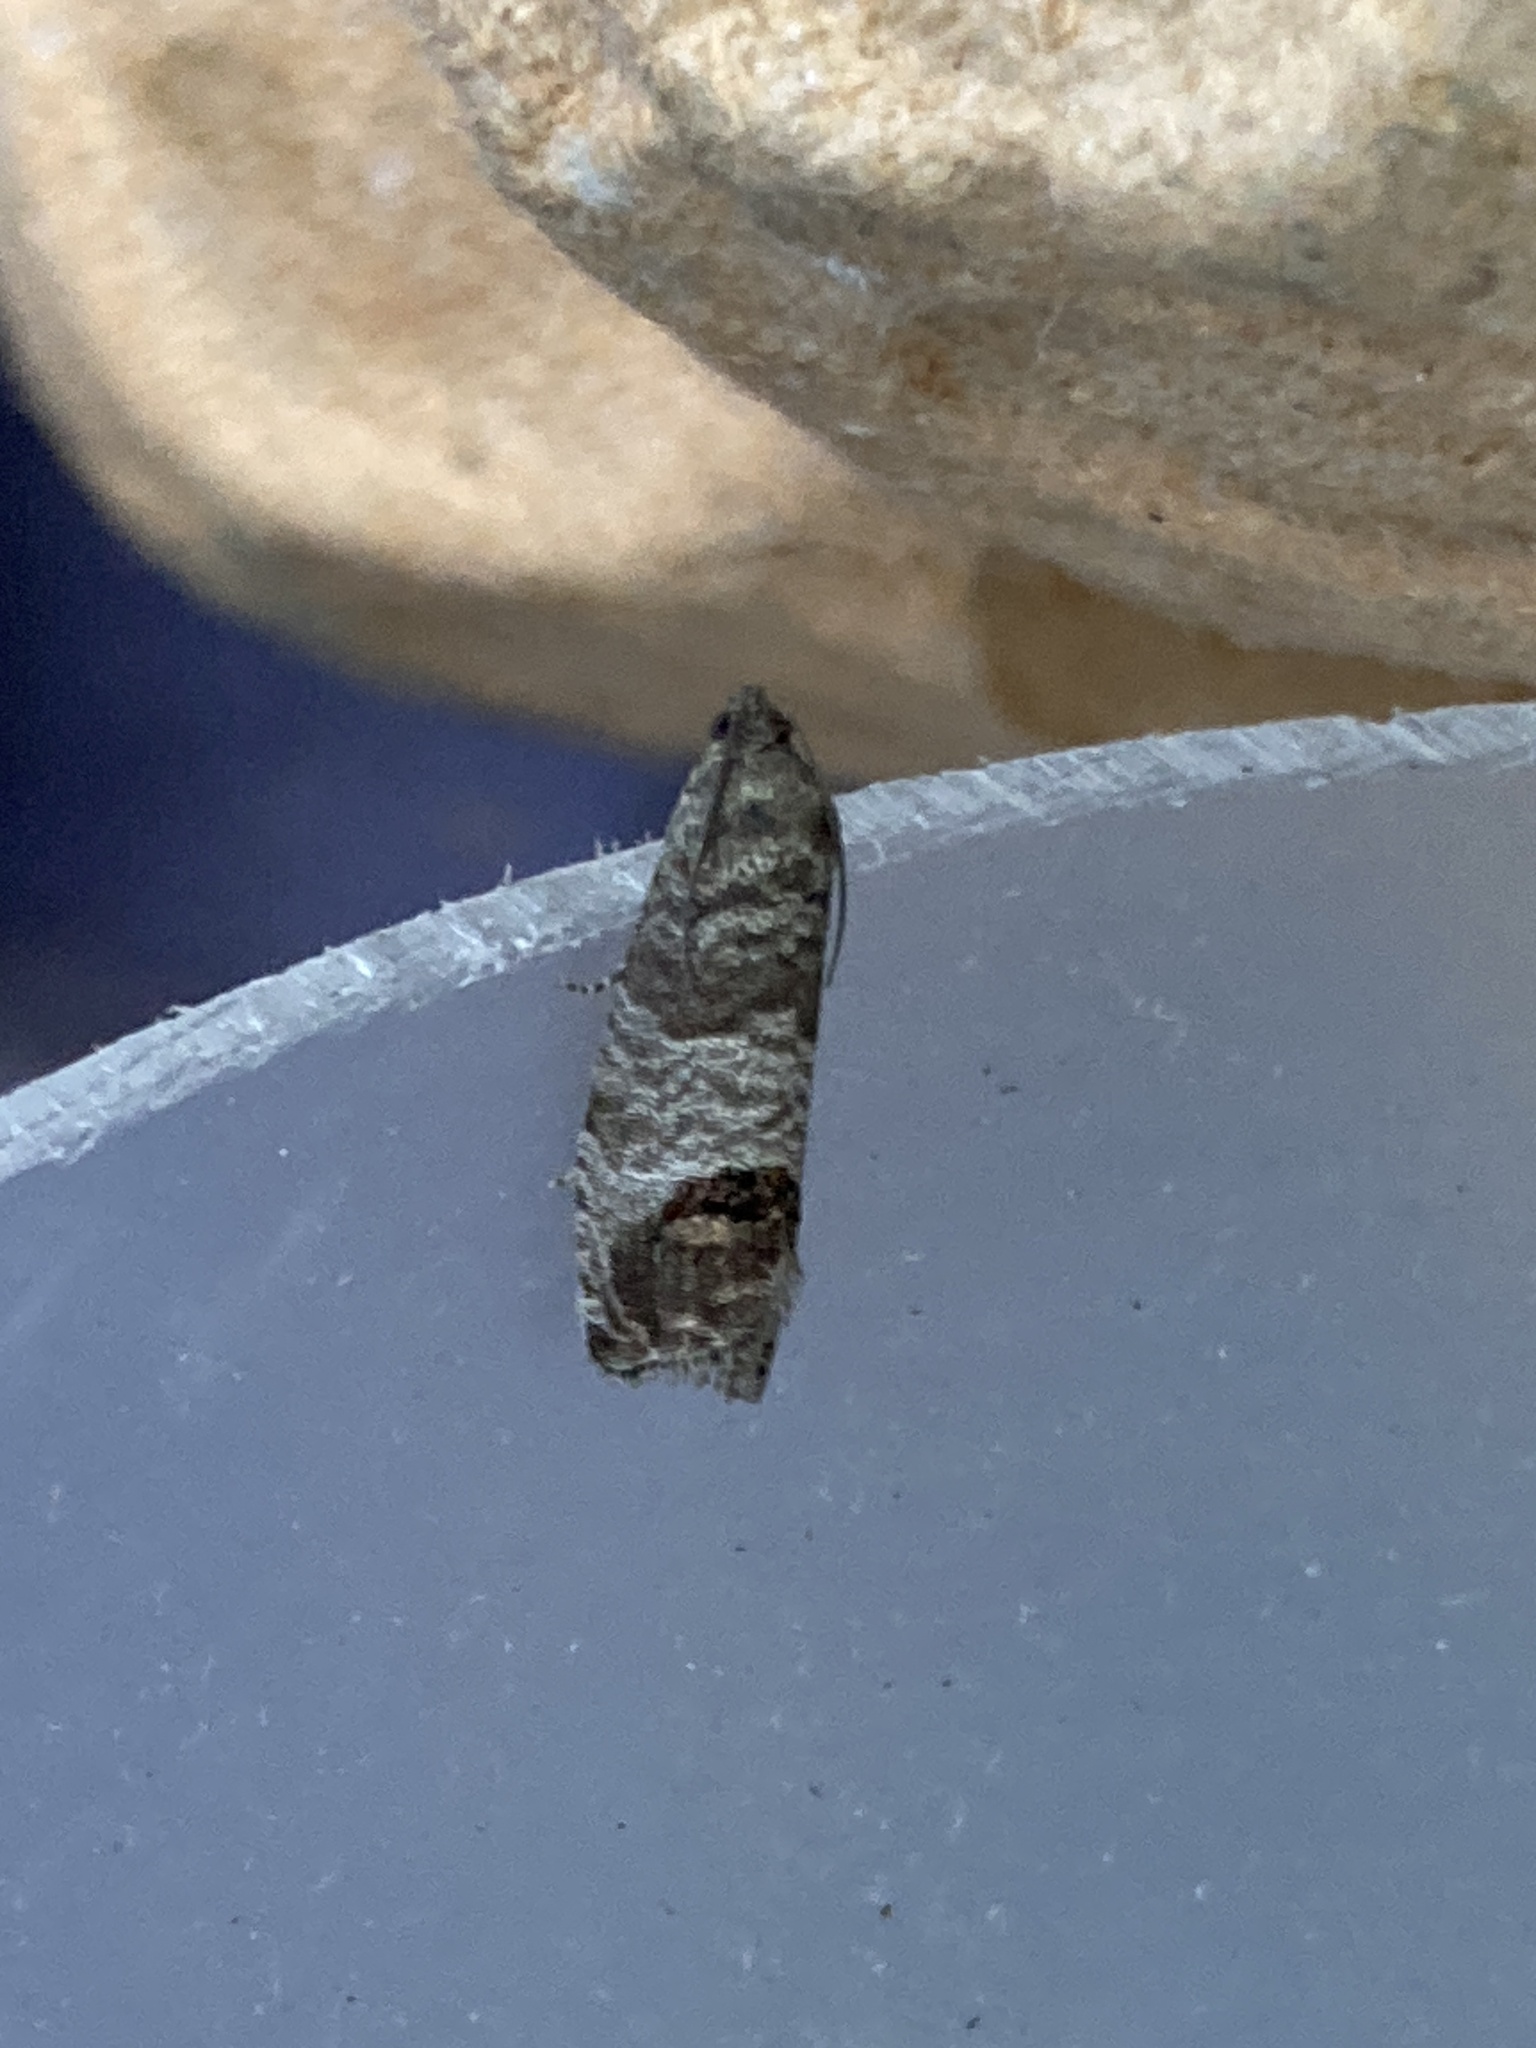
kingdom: Animalia
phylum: Arthropoda
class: Insecta
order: Lepidoptera
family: Tortricidae
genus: Cydia
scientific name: Cydia pomonella
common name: Codling moth
